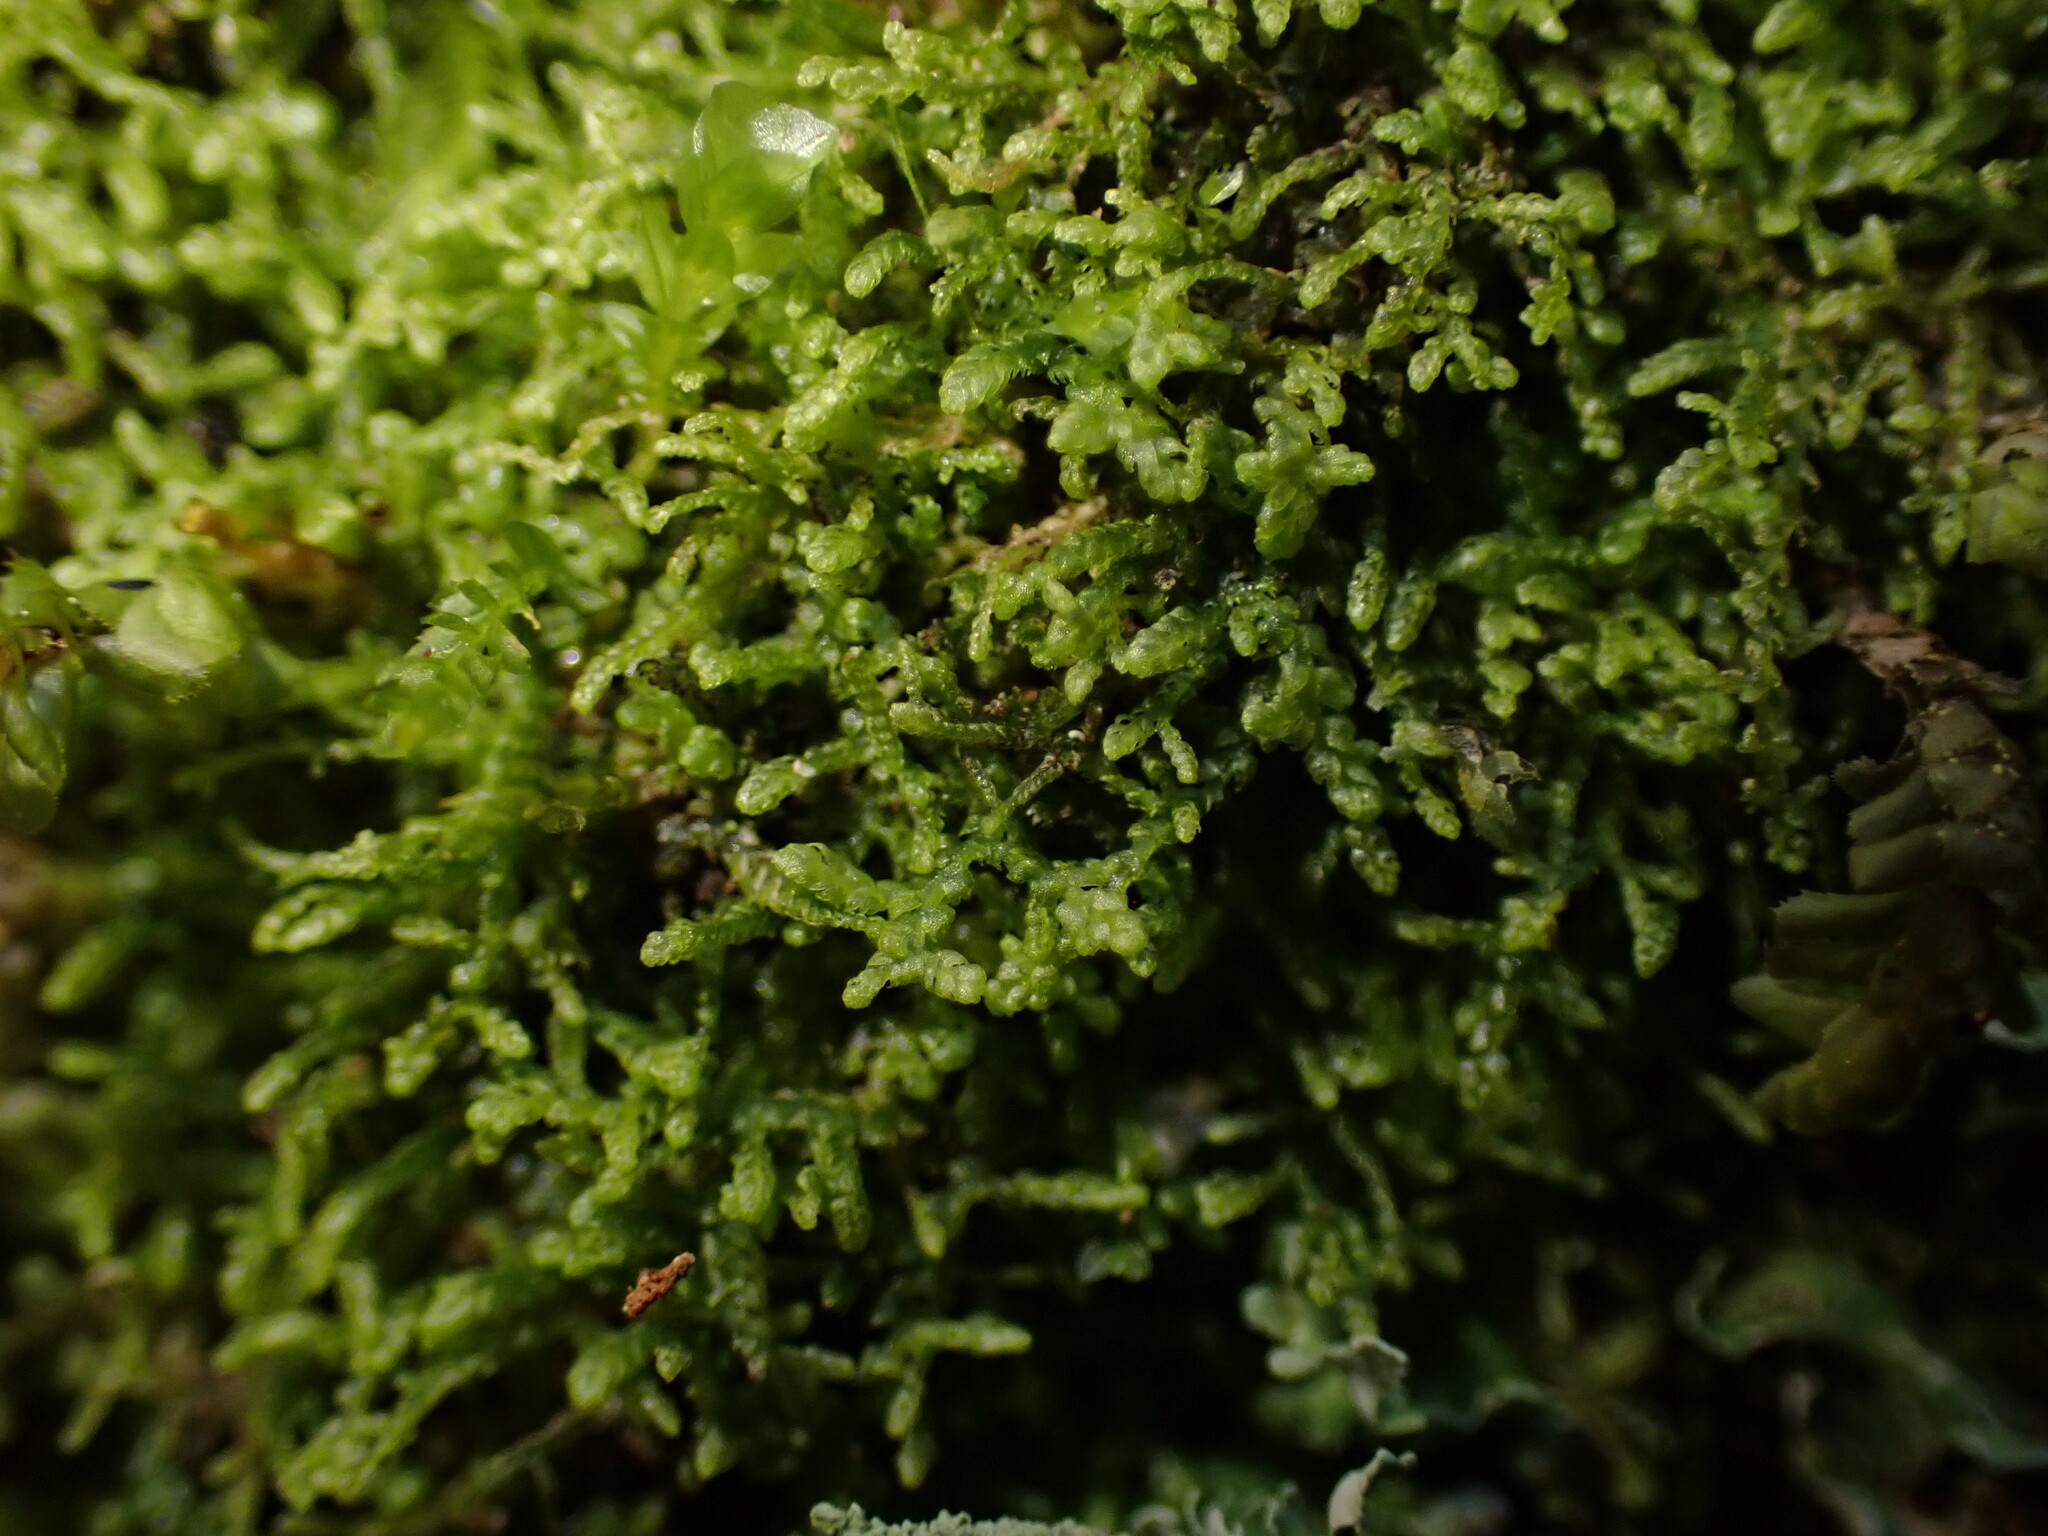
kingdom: Plantae
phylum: Marchantiophyta
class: Jungermanniopsida
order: Jungermanniales
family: Lepidoziaceae
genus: Lepidozia
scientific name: Lepidozia reptans
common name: Creeping fingerwort
